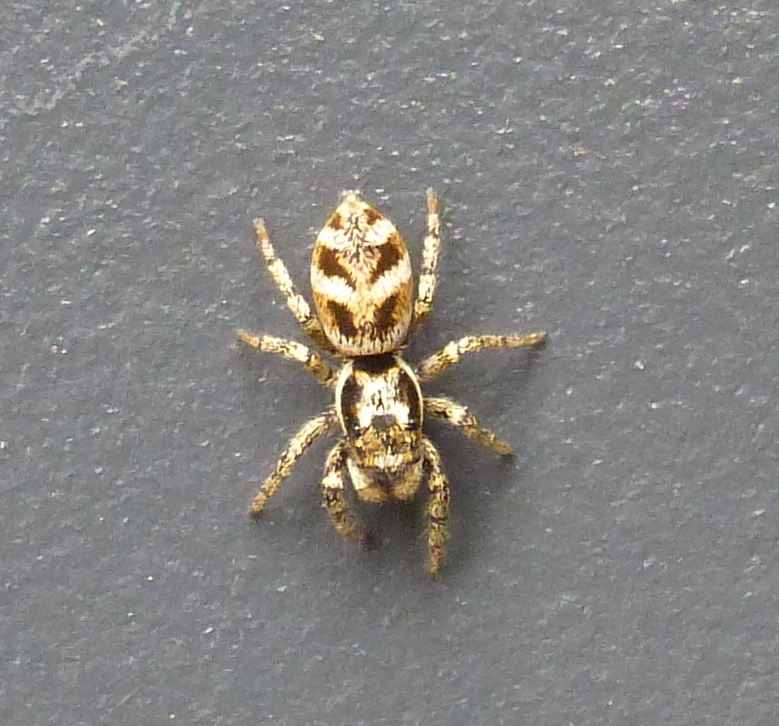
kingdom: Animalia
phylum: Arthropoda
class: Arachnida
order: Araneae
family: Salticidae
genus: Salticus
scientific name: Salticus scenicus
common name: Zebra jumper
